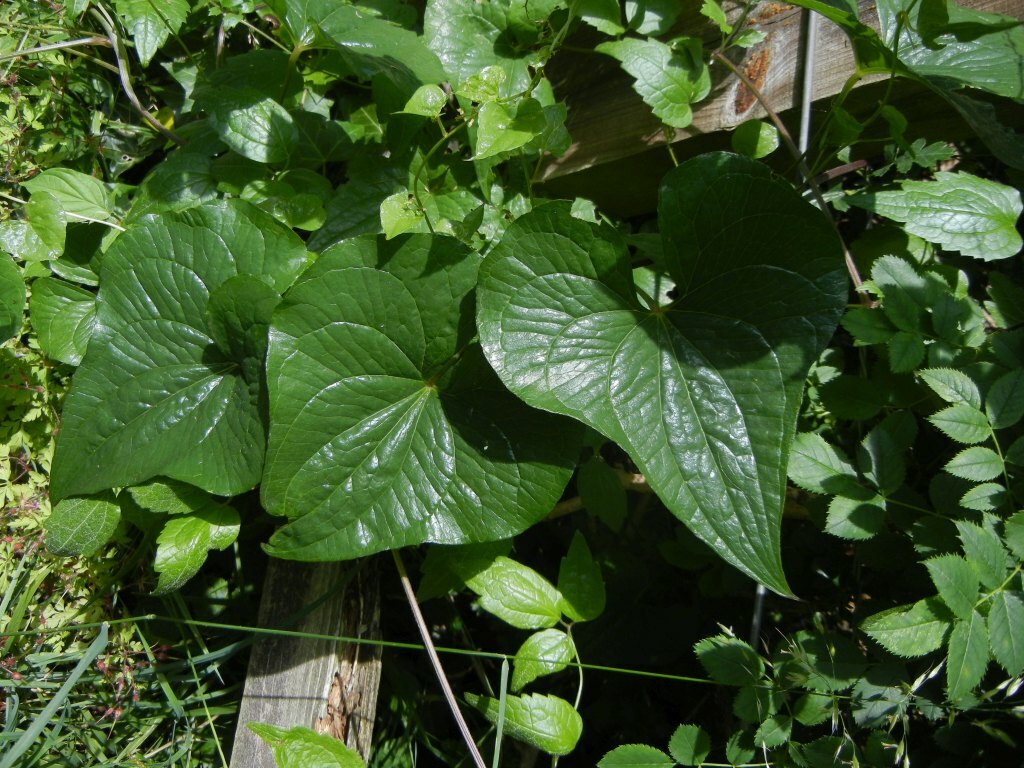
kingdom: Plantae
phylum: Tracheophyta
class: Liliopsida
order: Dioscoreales
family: Dioscoreaceae
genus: Dioscorea
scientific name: Dioscorea communis
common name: Black-bindweed
